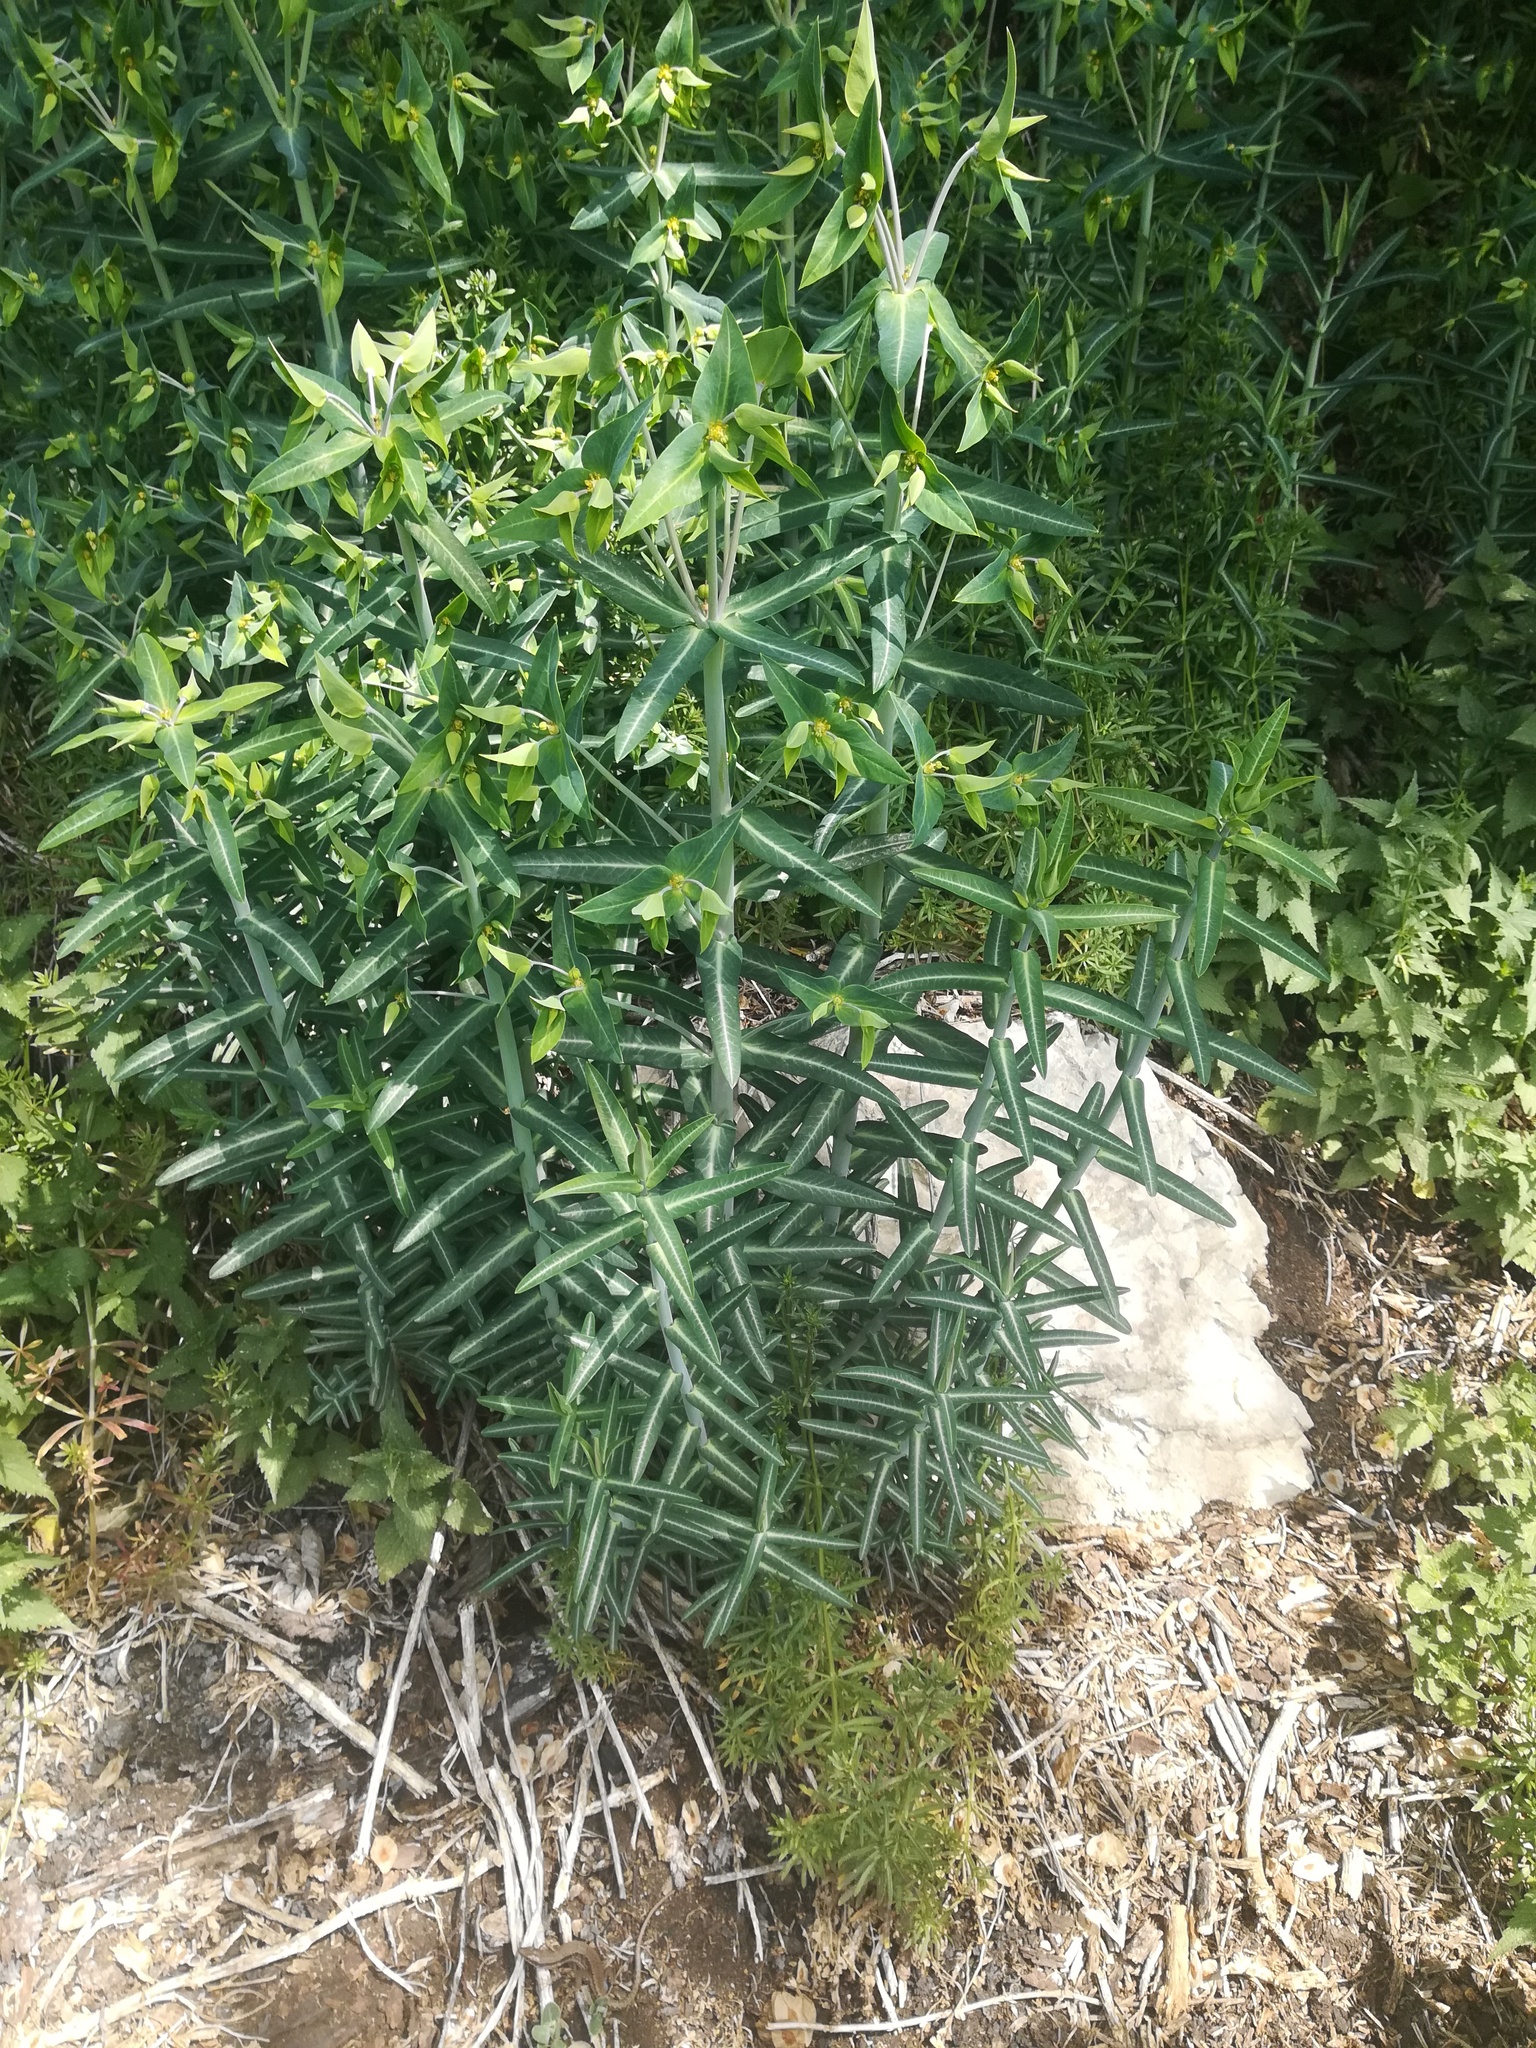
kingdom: Plantae
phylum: Tracheophyta
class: Magnoliopsida
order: Malpighiales
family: Euphorbiaceae
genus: Euphorbia
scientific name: Euphorbia lathyris
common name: Caper spurge
